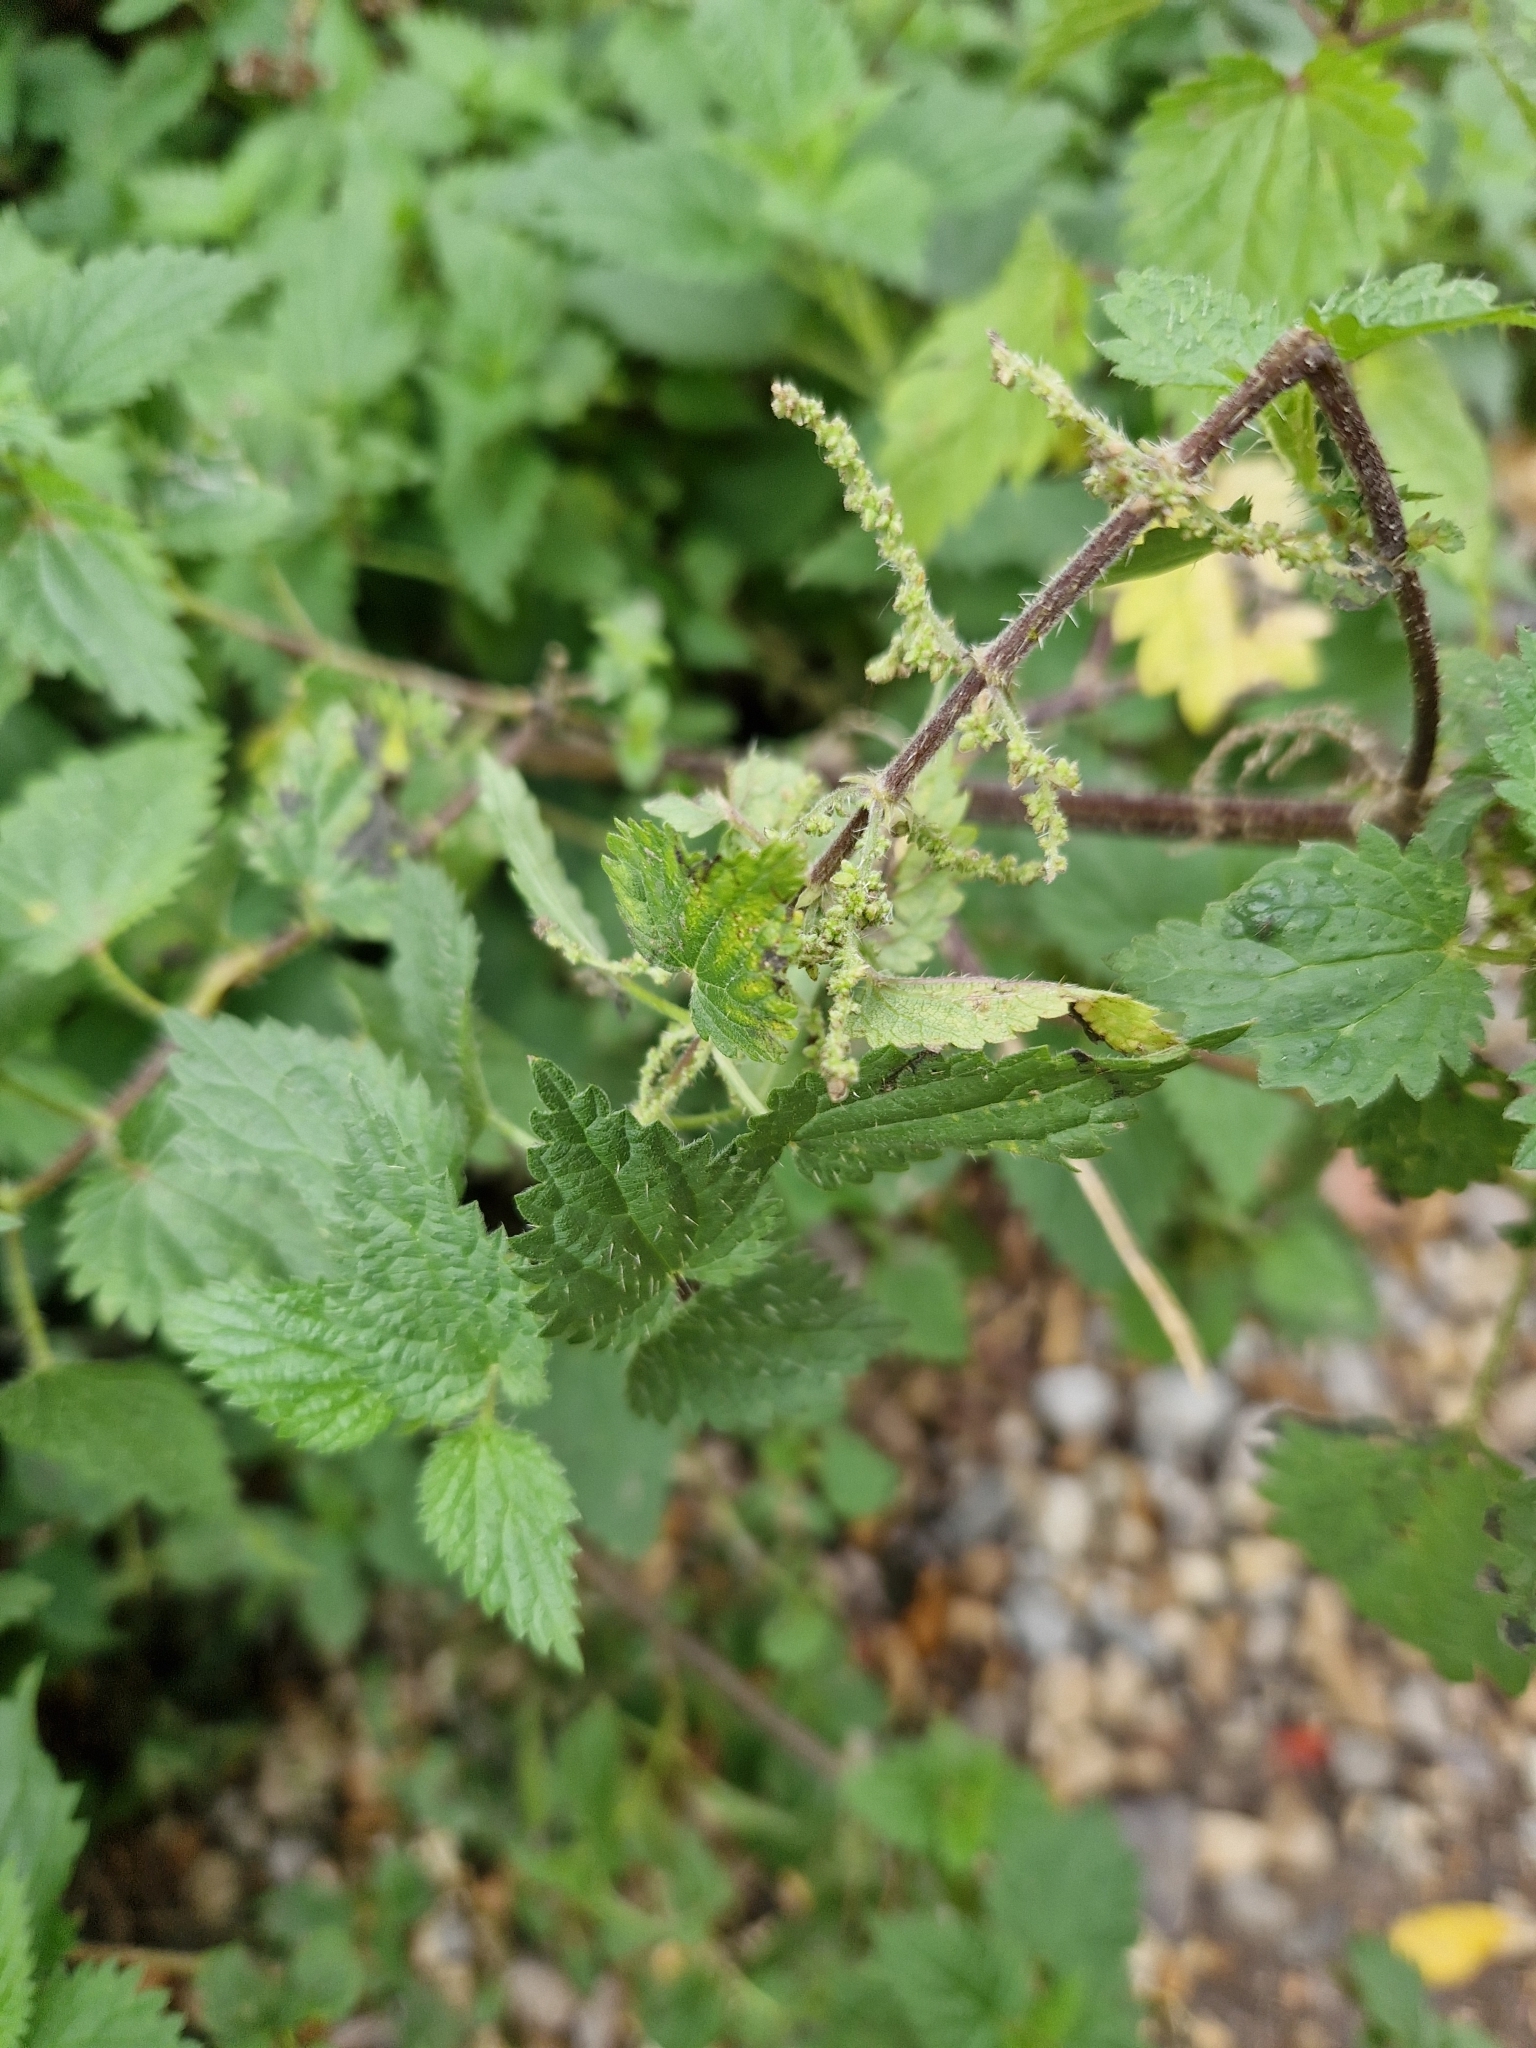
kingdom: Plantae
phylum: Tracheophyta
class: Magnoliopsida
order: Rosales
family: Urticaceae
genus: Urtica
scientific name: Urtica dioica
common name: Common nettle
